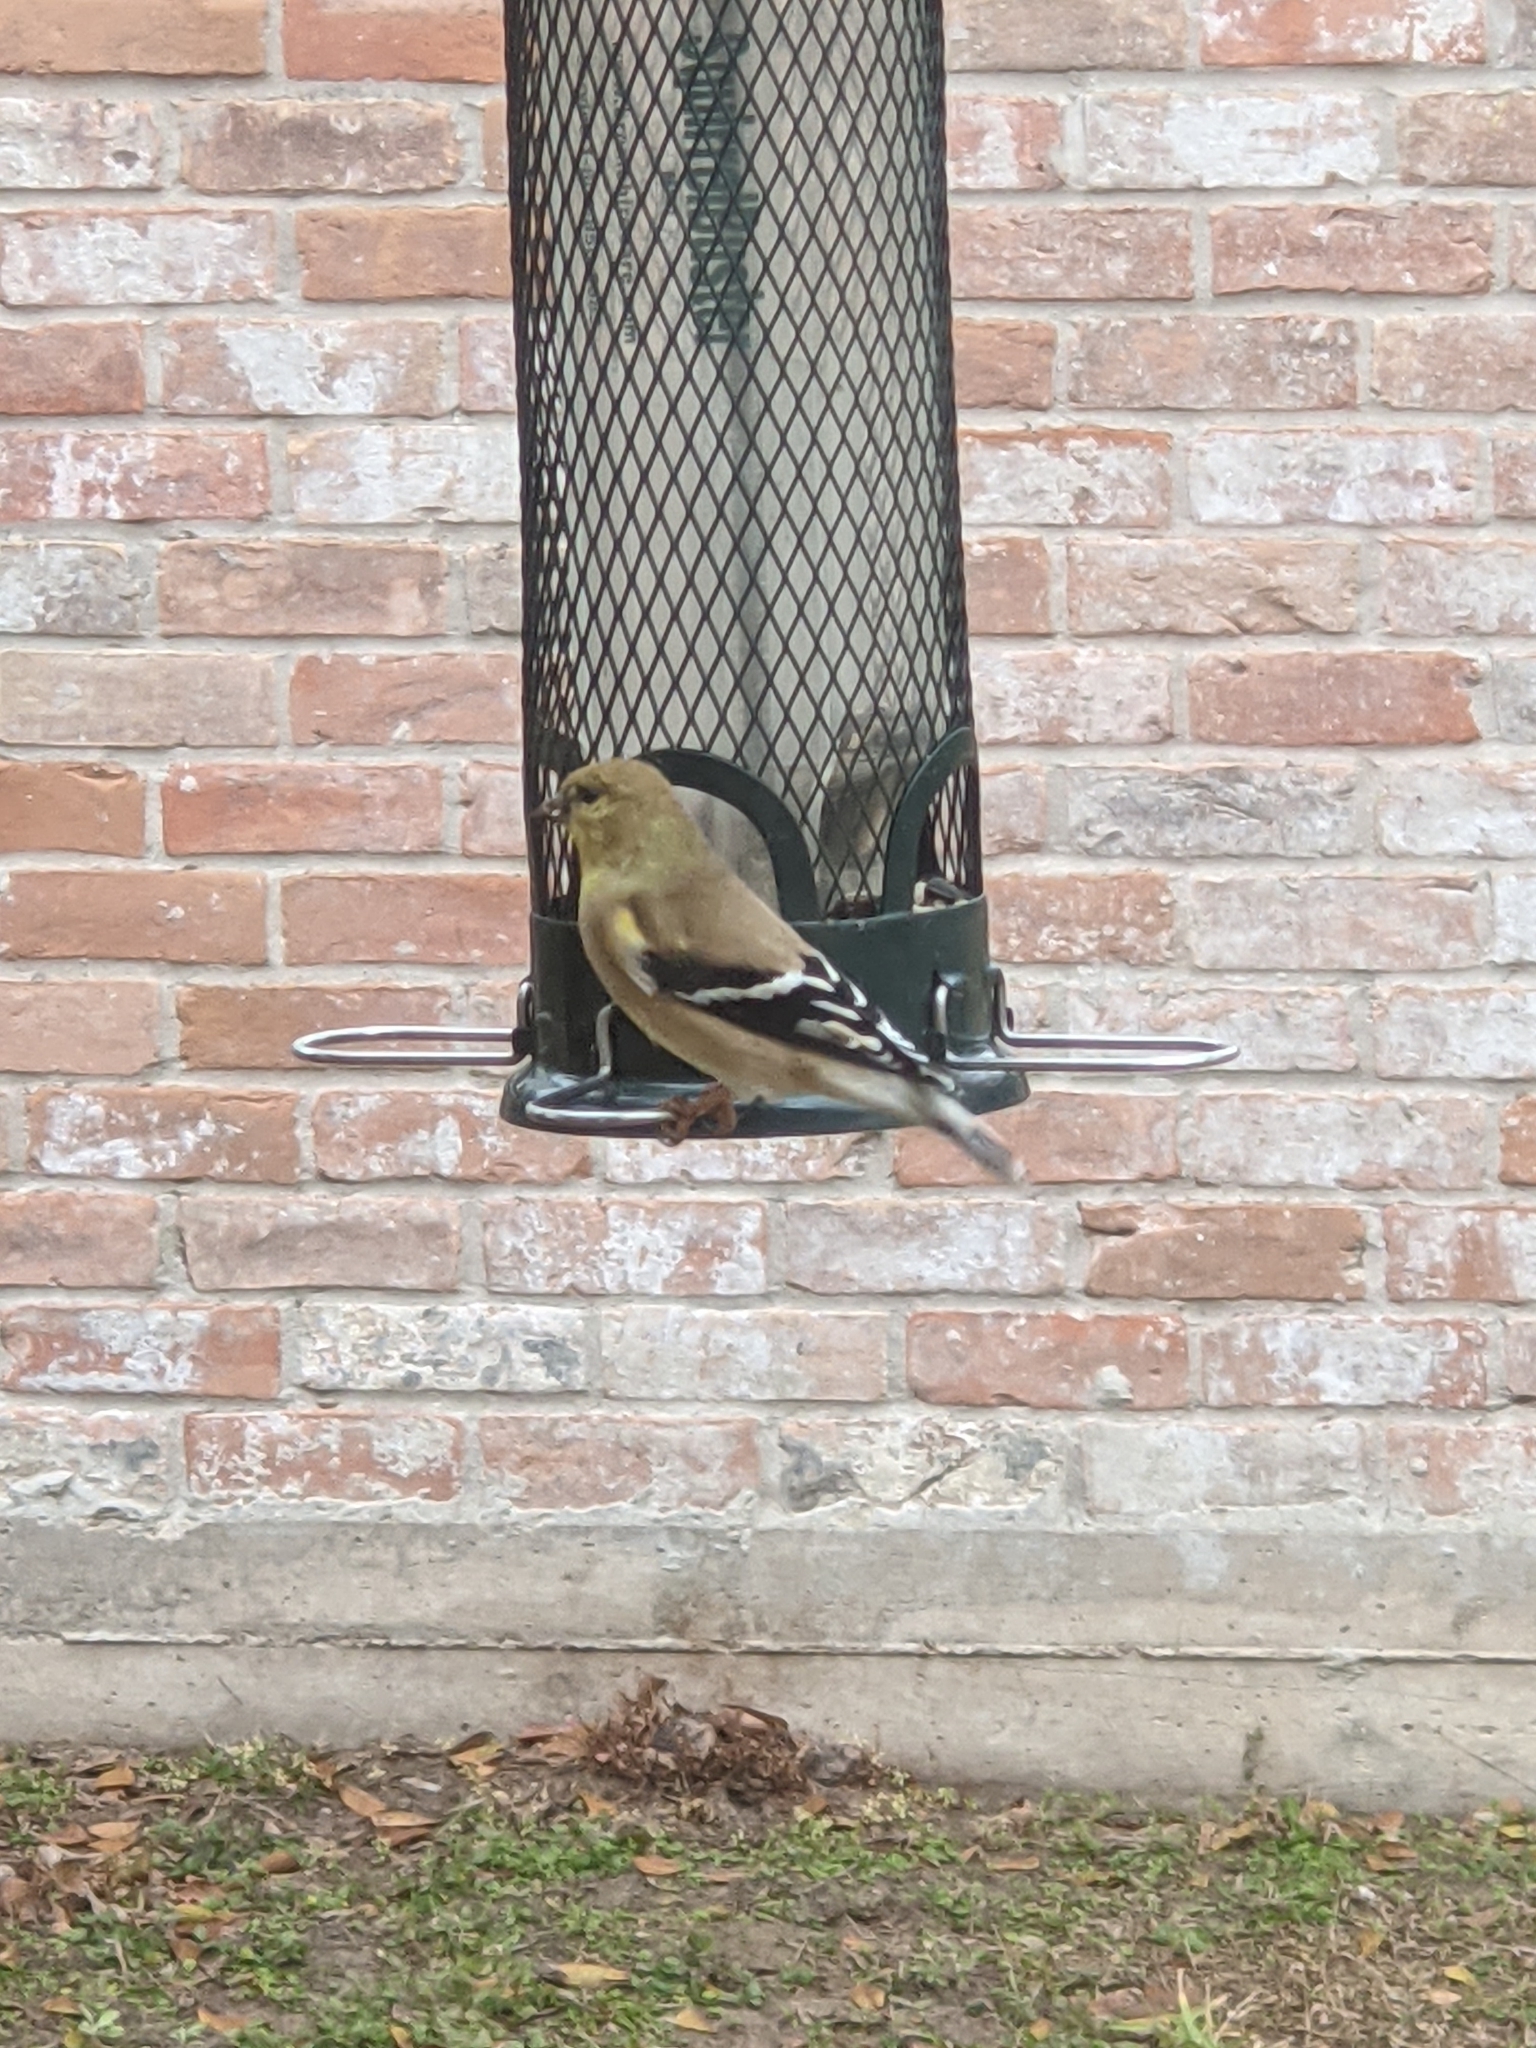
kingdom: Animalia
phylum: Chordata
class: Aves
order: Passeriformes
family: Fringillidae
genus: Spinus
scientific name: Spinus tristis
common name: American goldfinch
